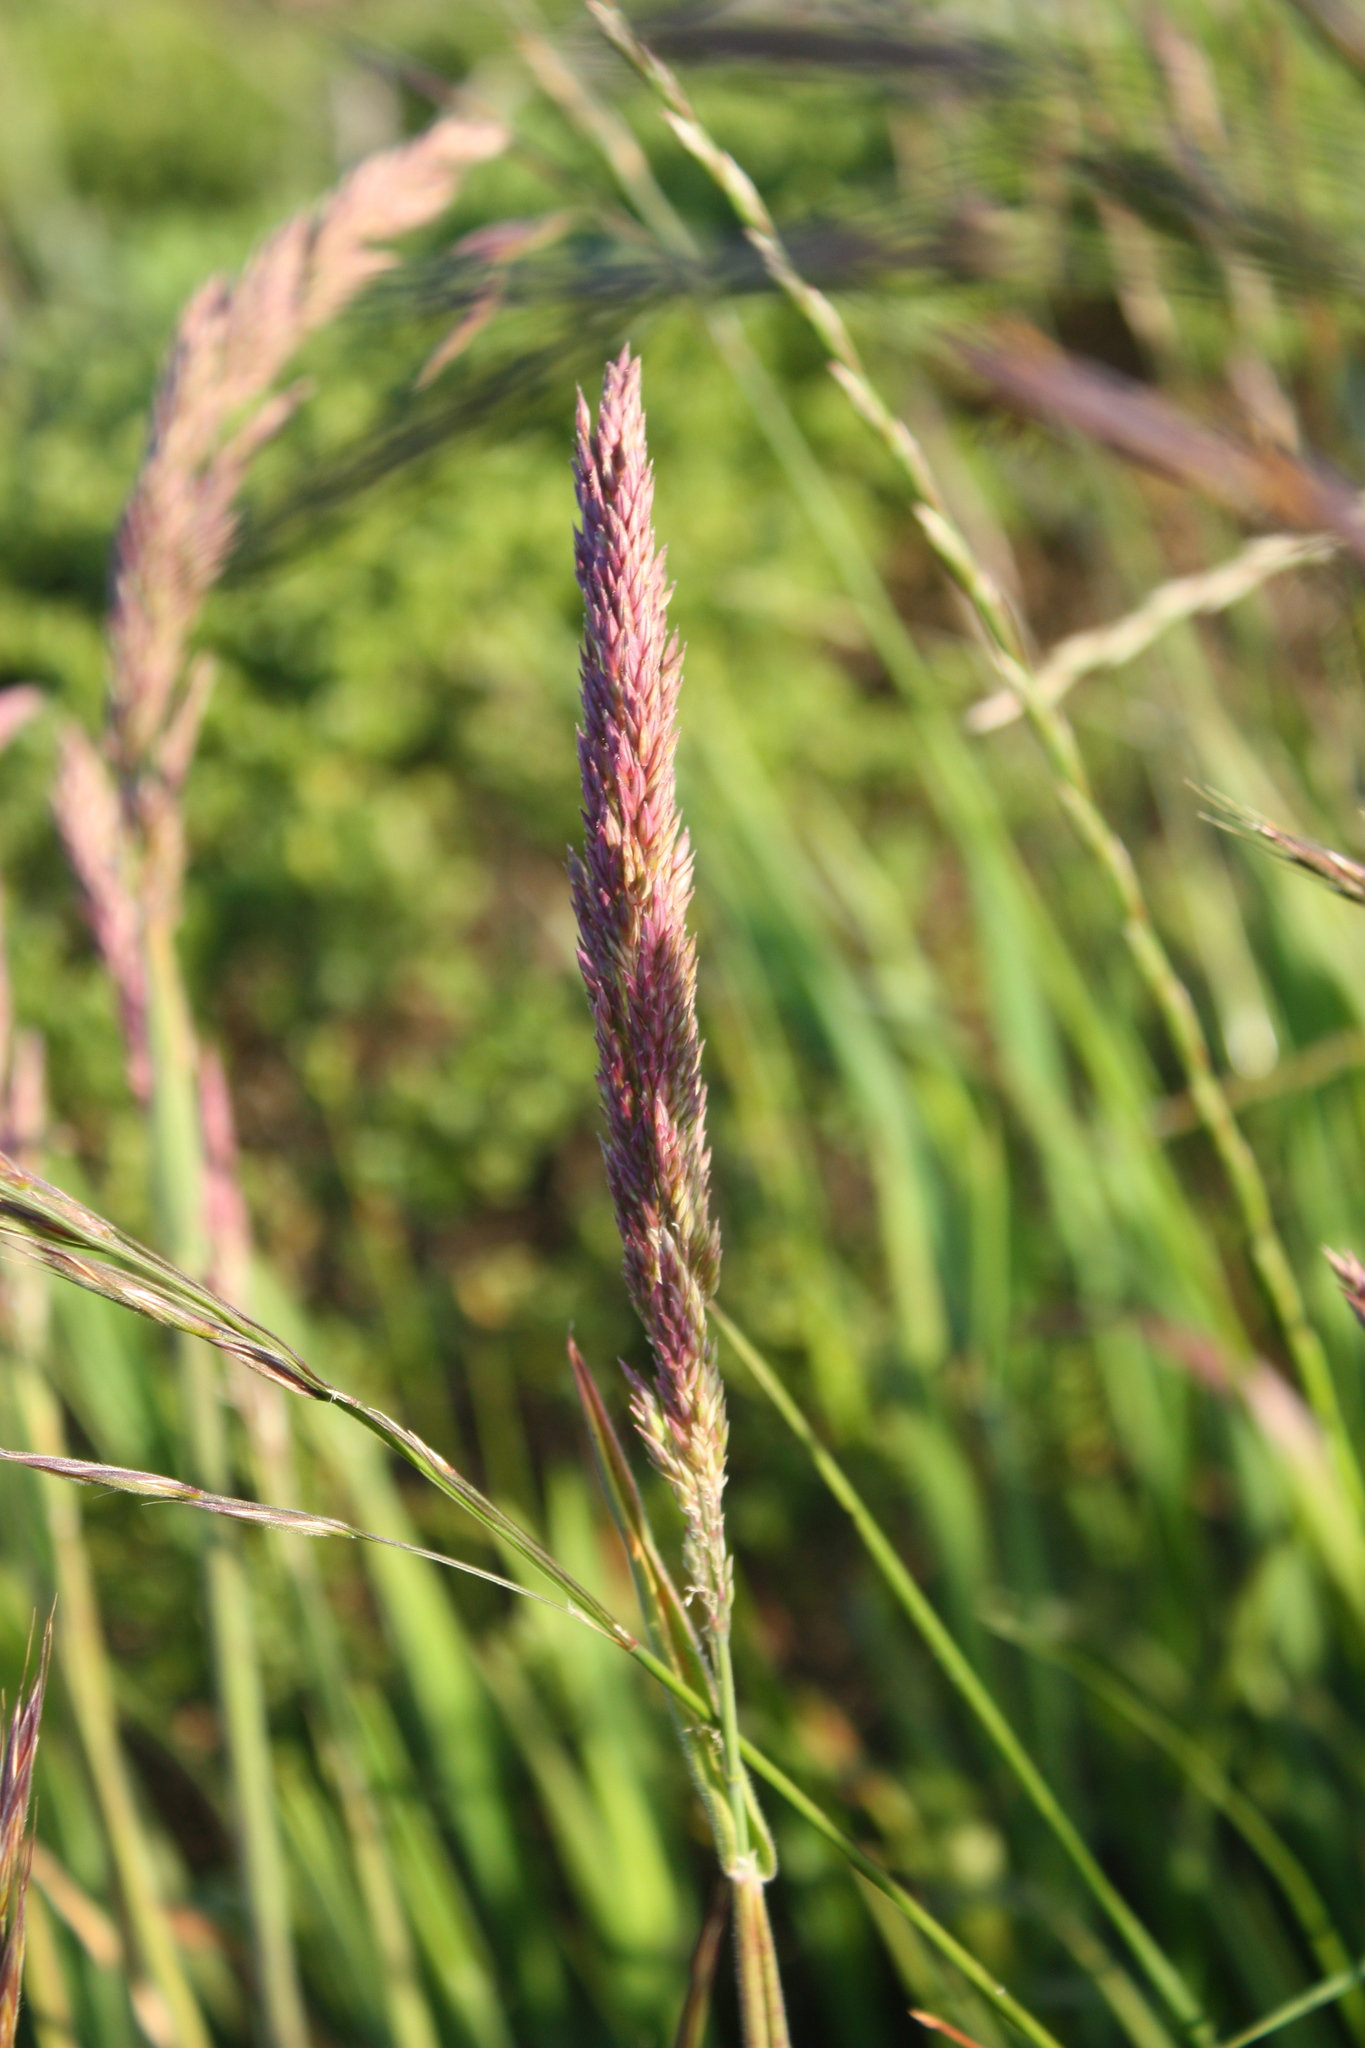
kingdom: Plantae
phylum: Tracheophyta
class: Liliopsida
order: Poales
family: Poaceae
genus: Holcus
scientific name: Holcus lanatus
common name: Yorkshire-fog
